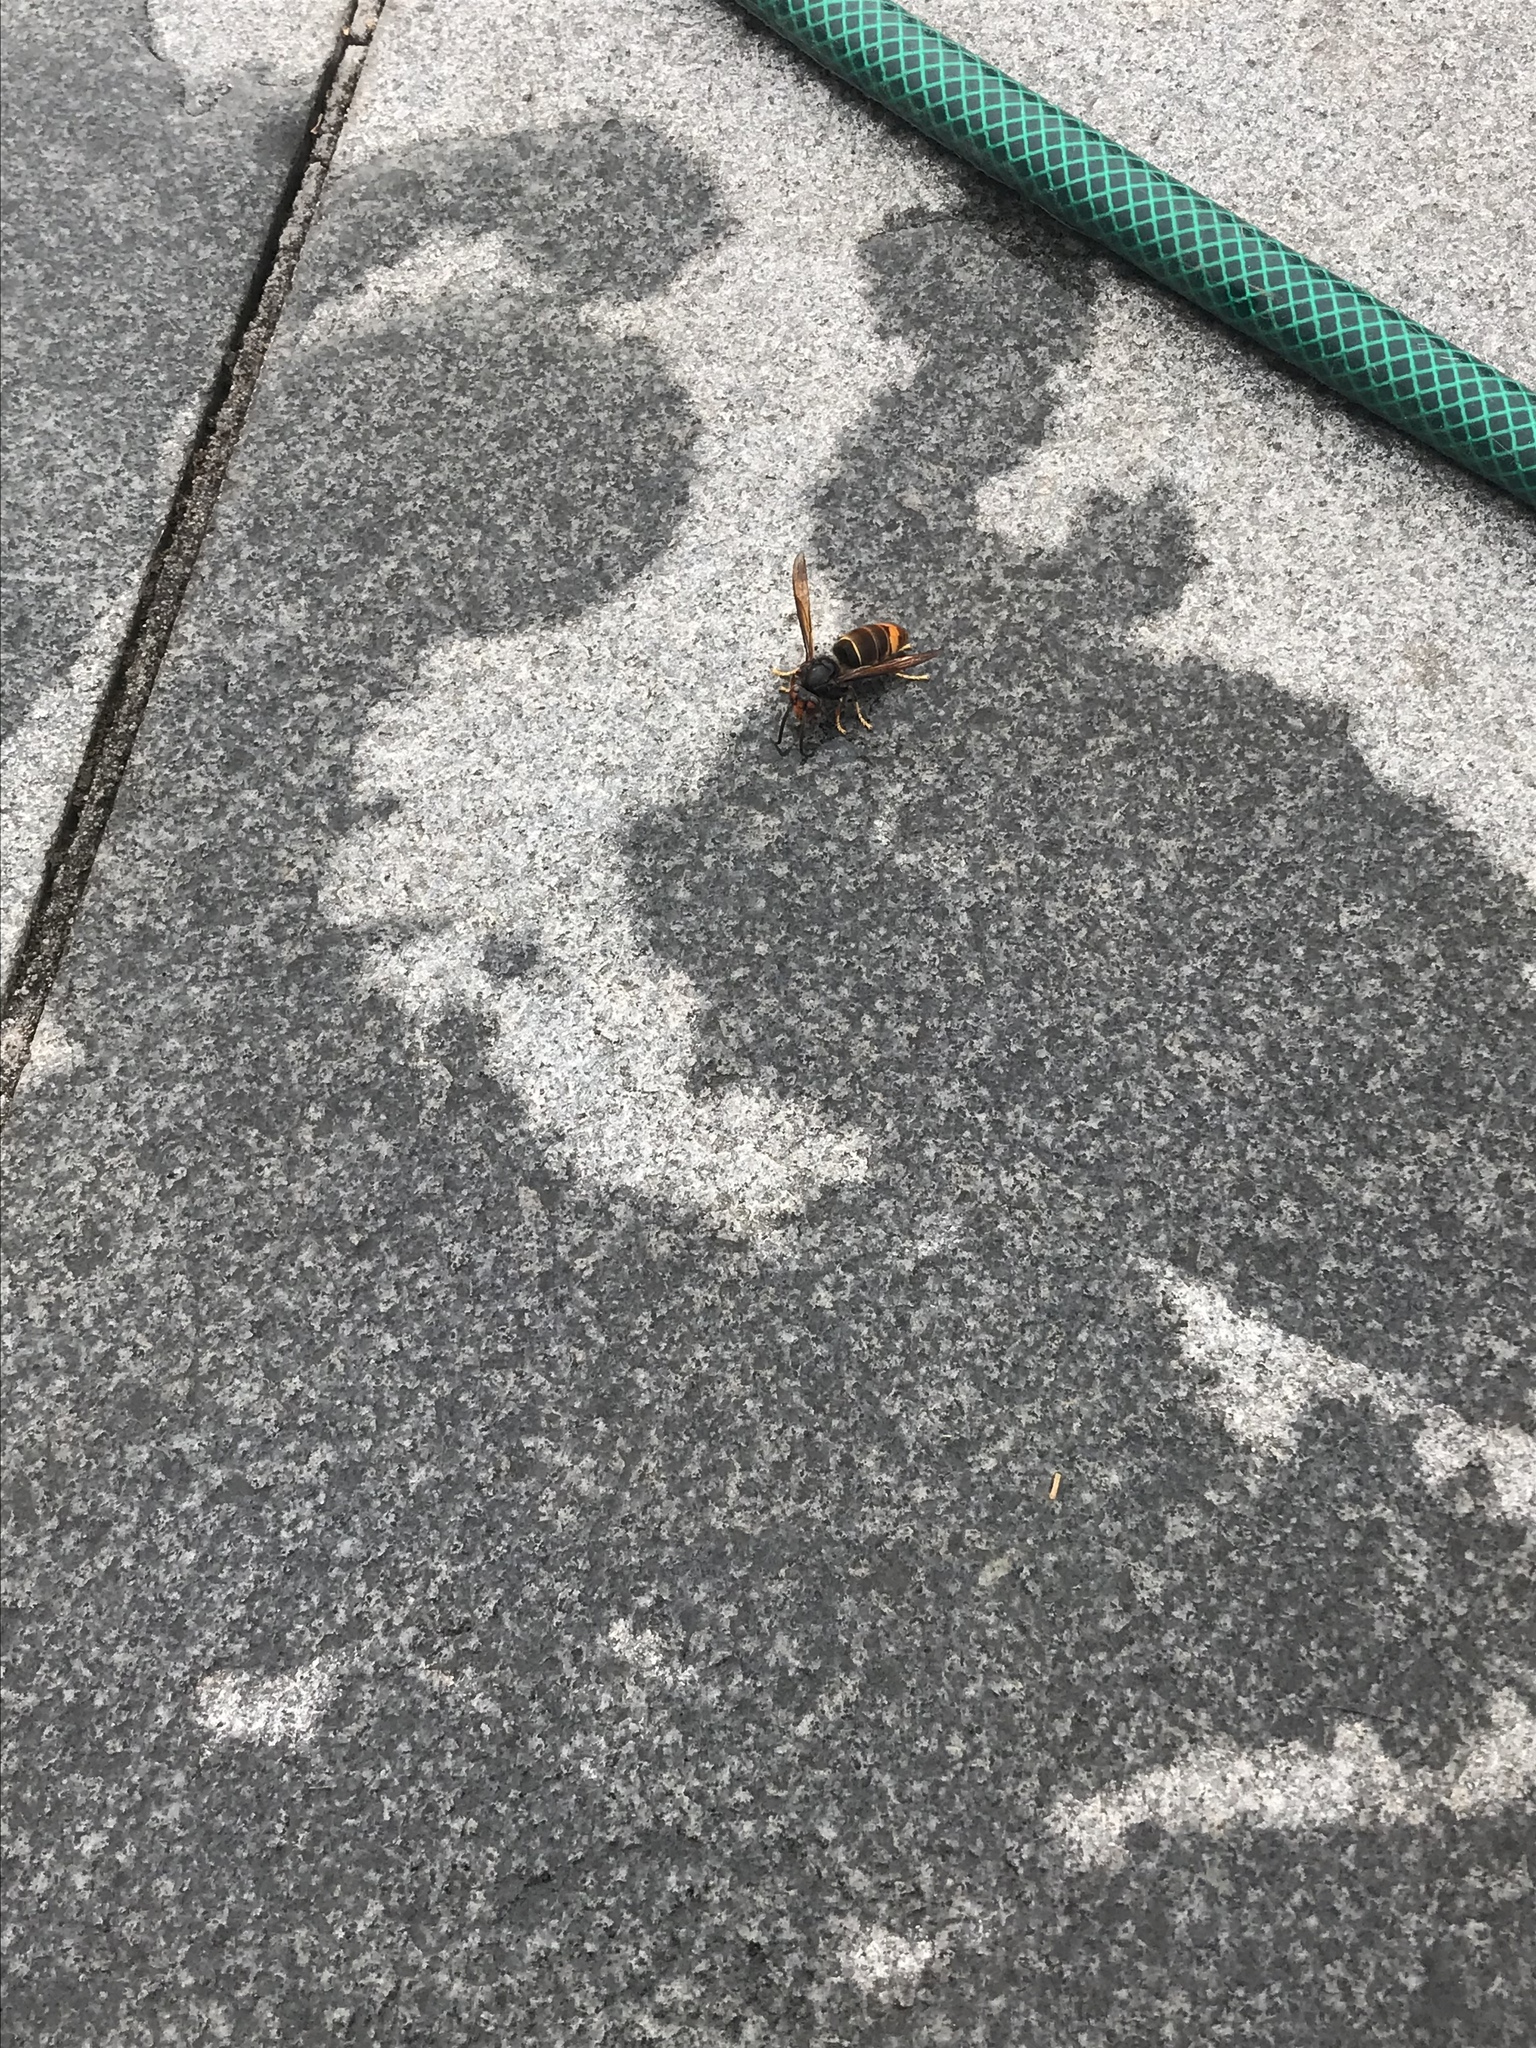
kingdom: Animalia
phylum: Arthropoda
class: Insecta
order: Hymenoptera
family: Vespidae
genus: Vespa
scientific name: Vespa velutina
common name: Asian hornet
